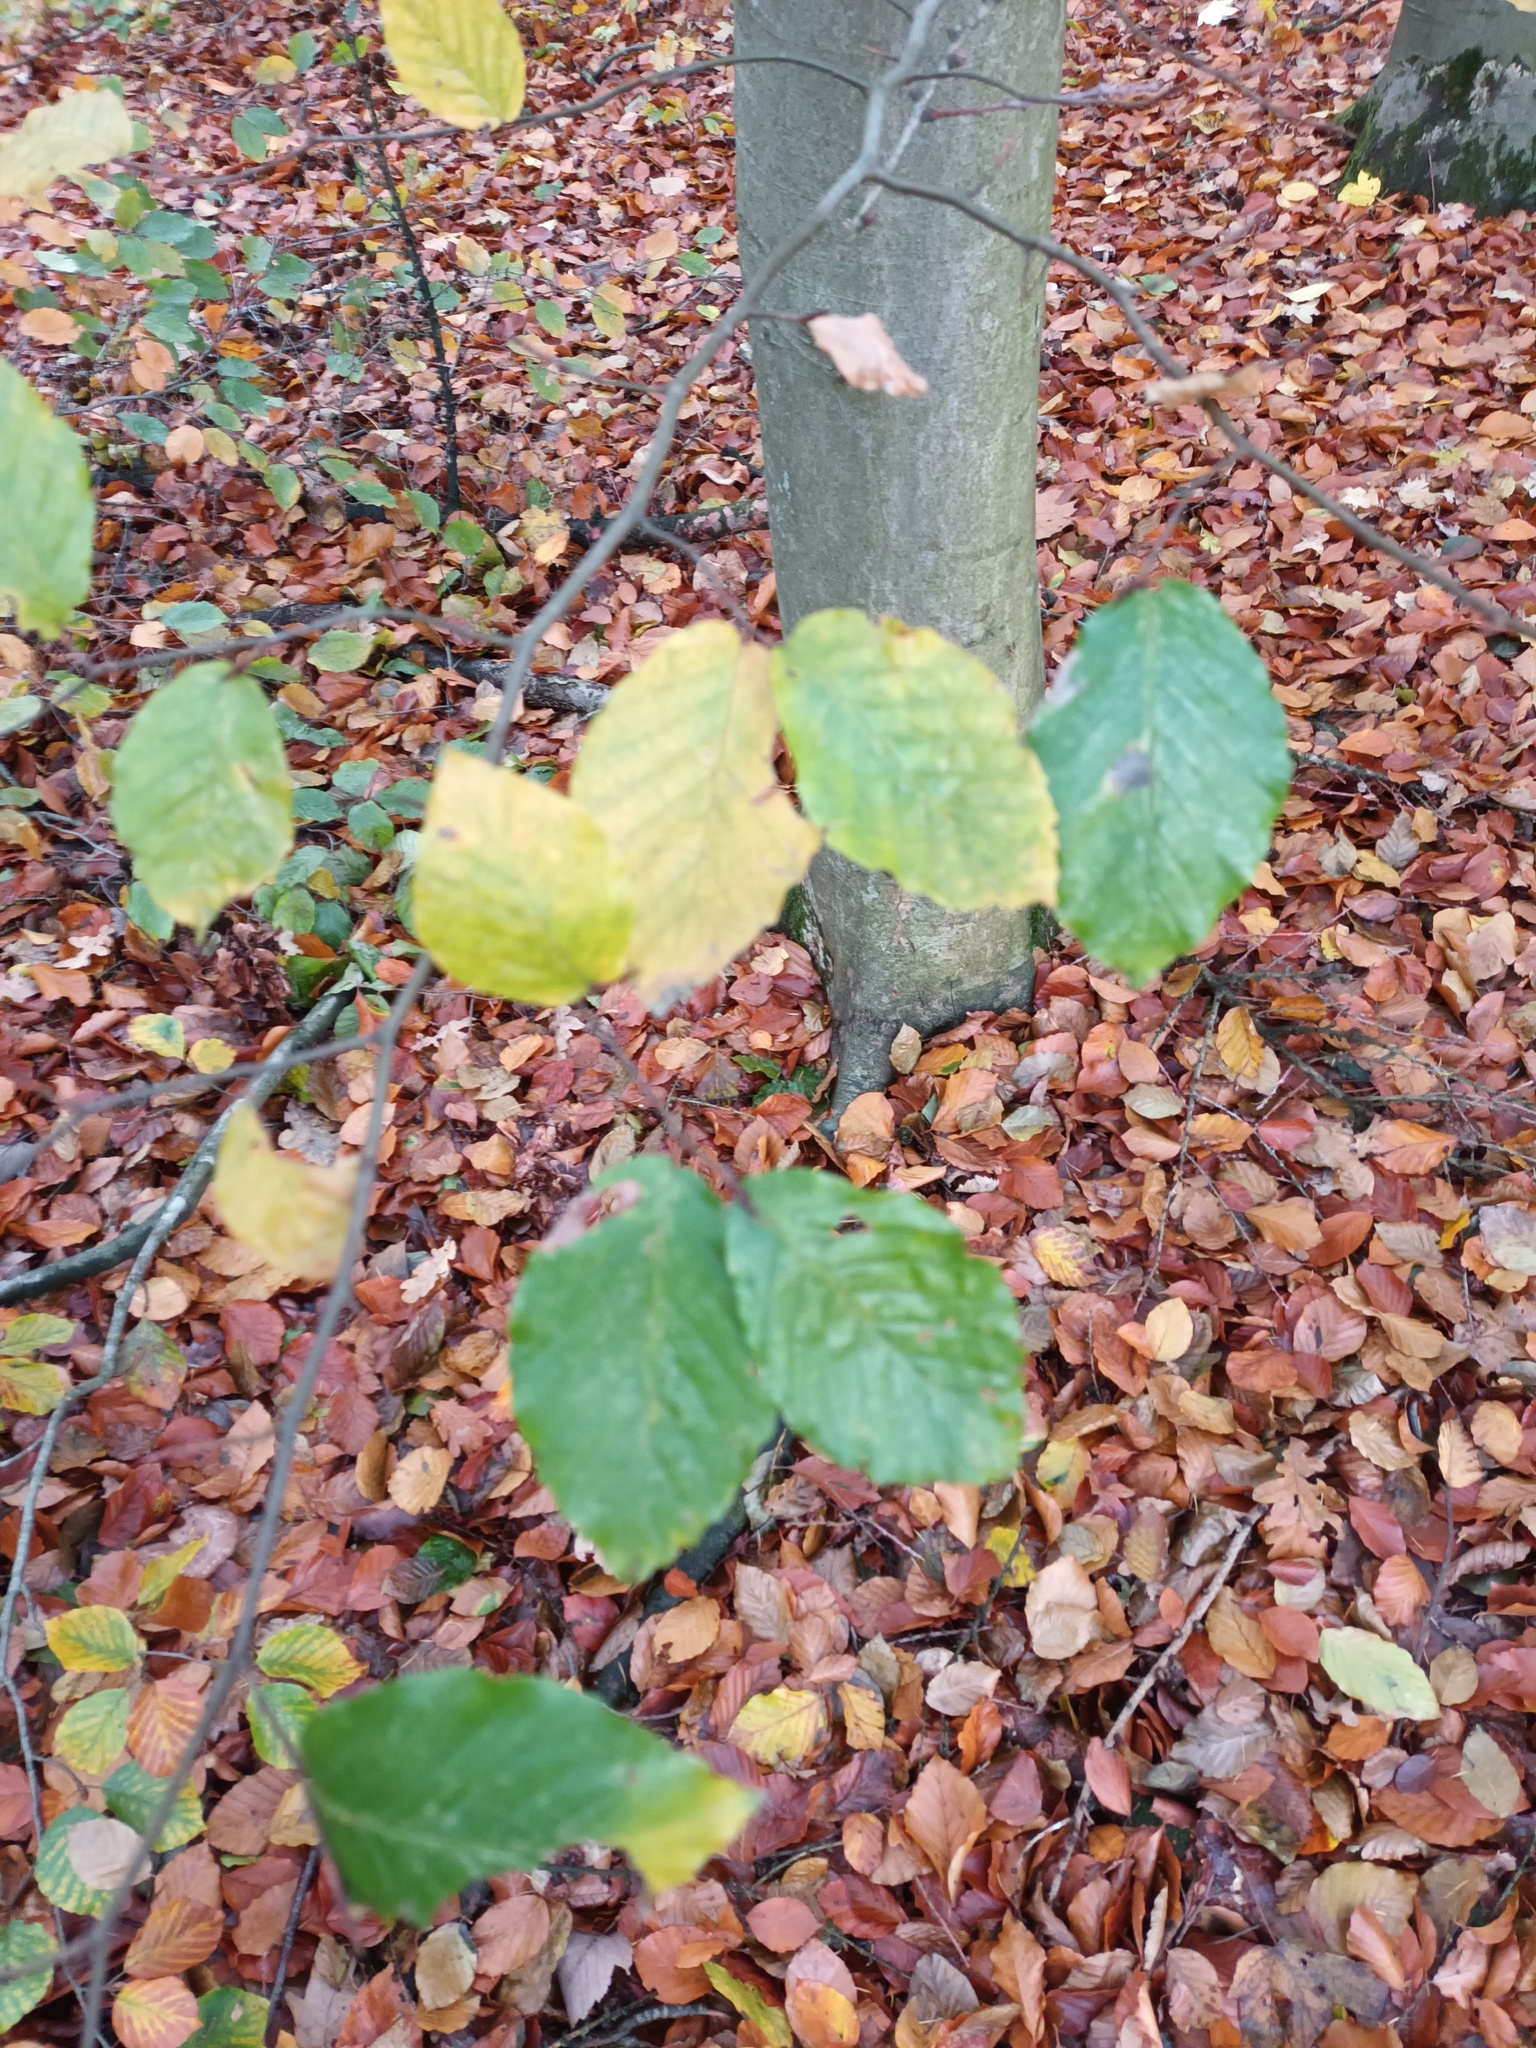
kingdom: Plantae
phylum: Tracheophyta
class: Magnoliopsida
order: Fagales
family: Fagaceae
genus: Fagus
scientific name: Fagus sylvatica
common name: Beech
